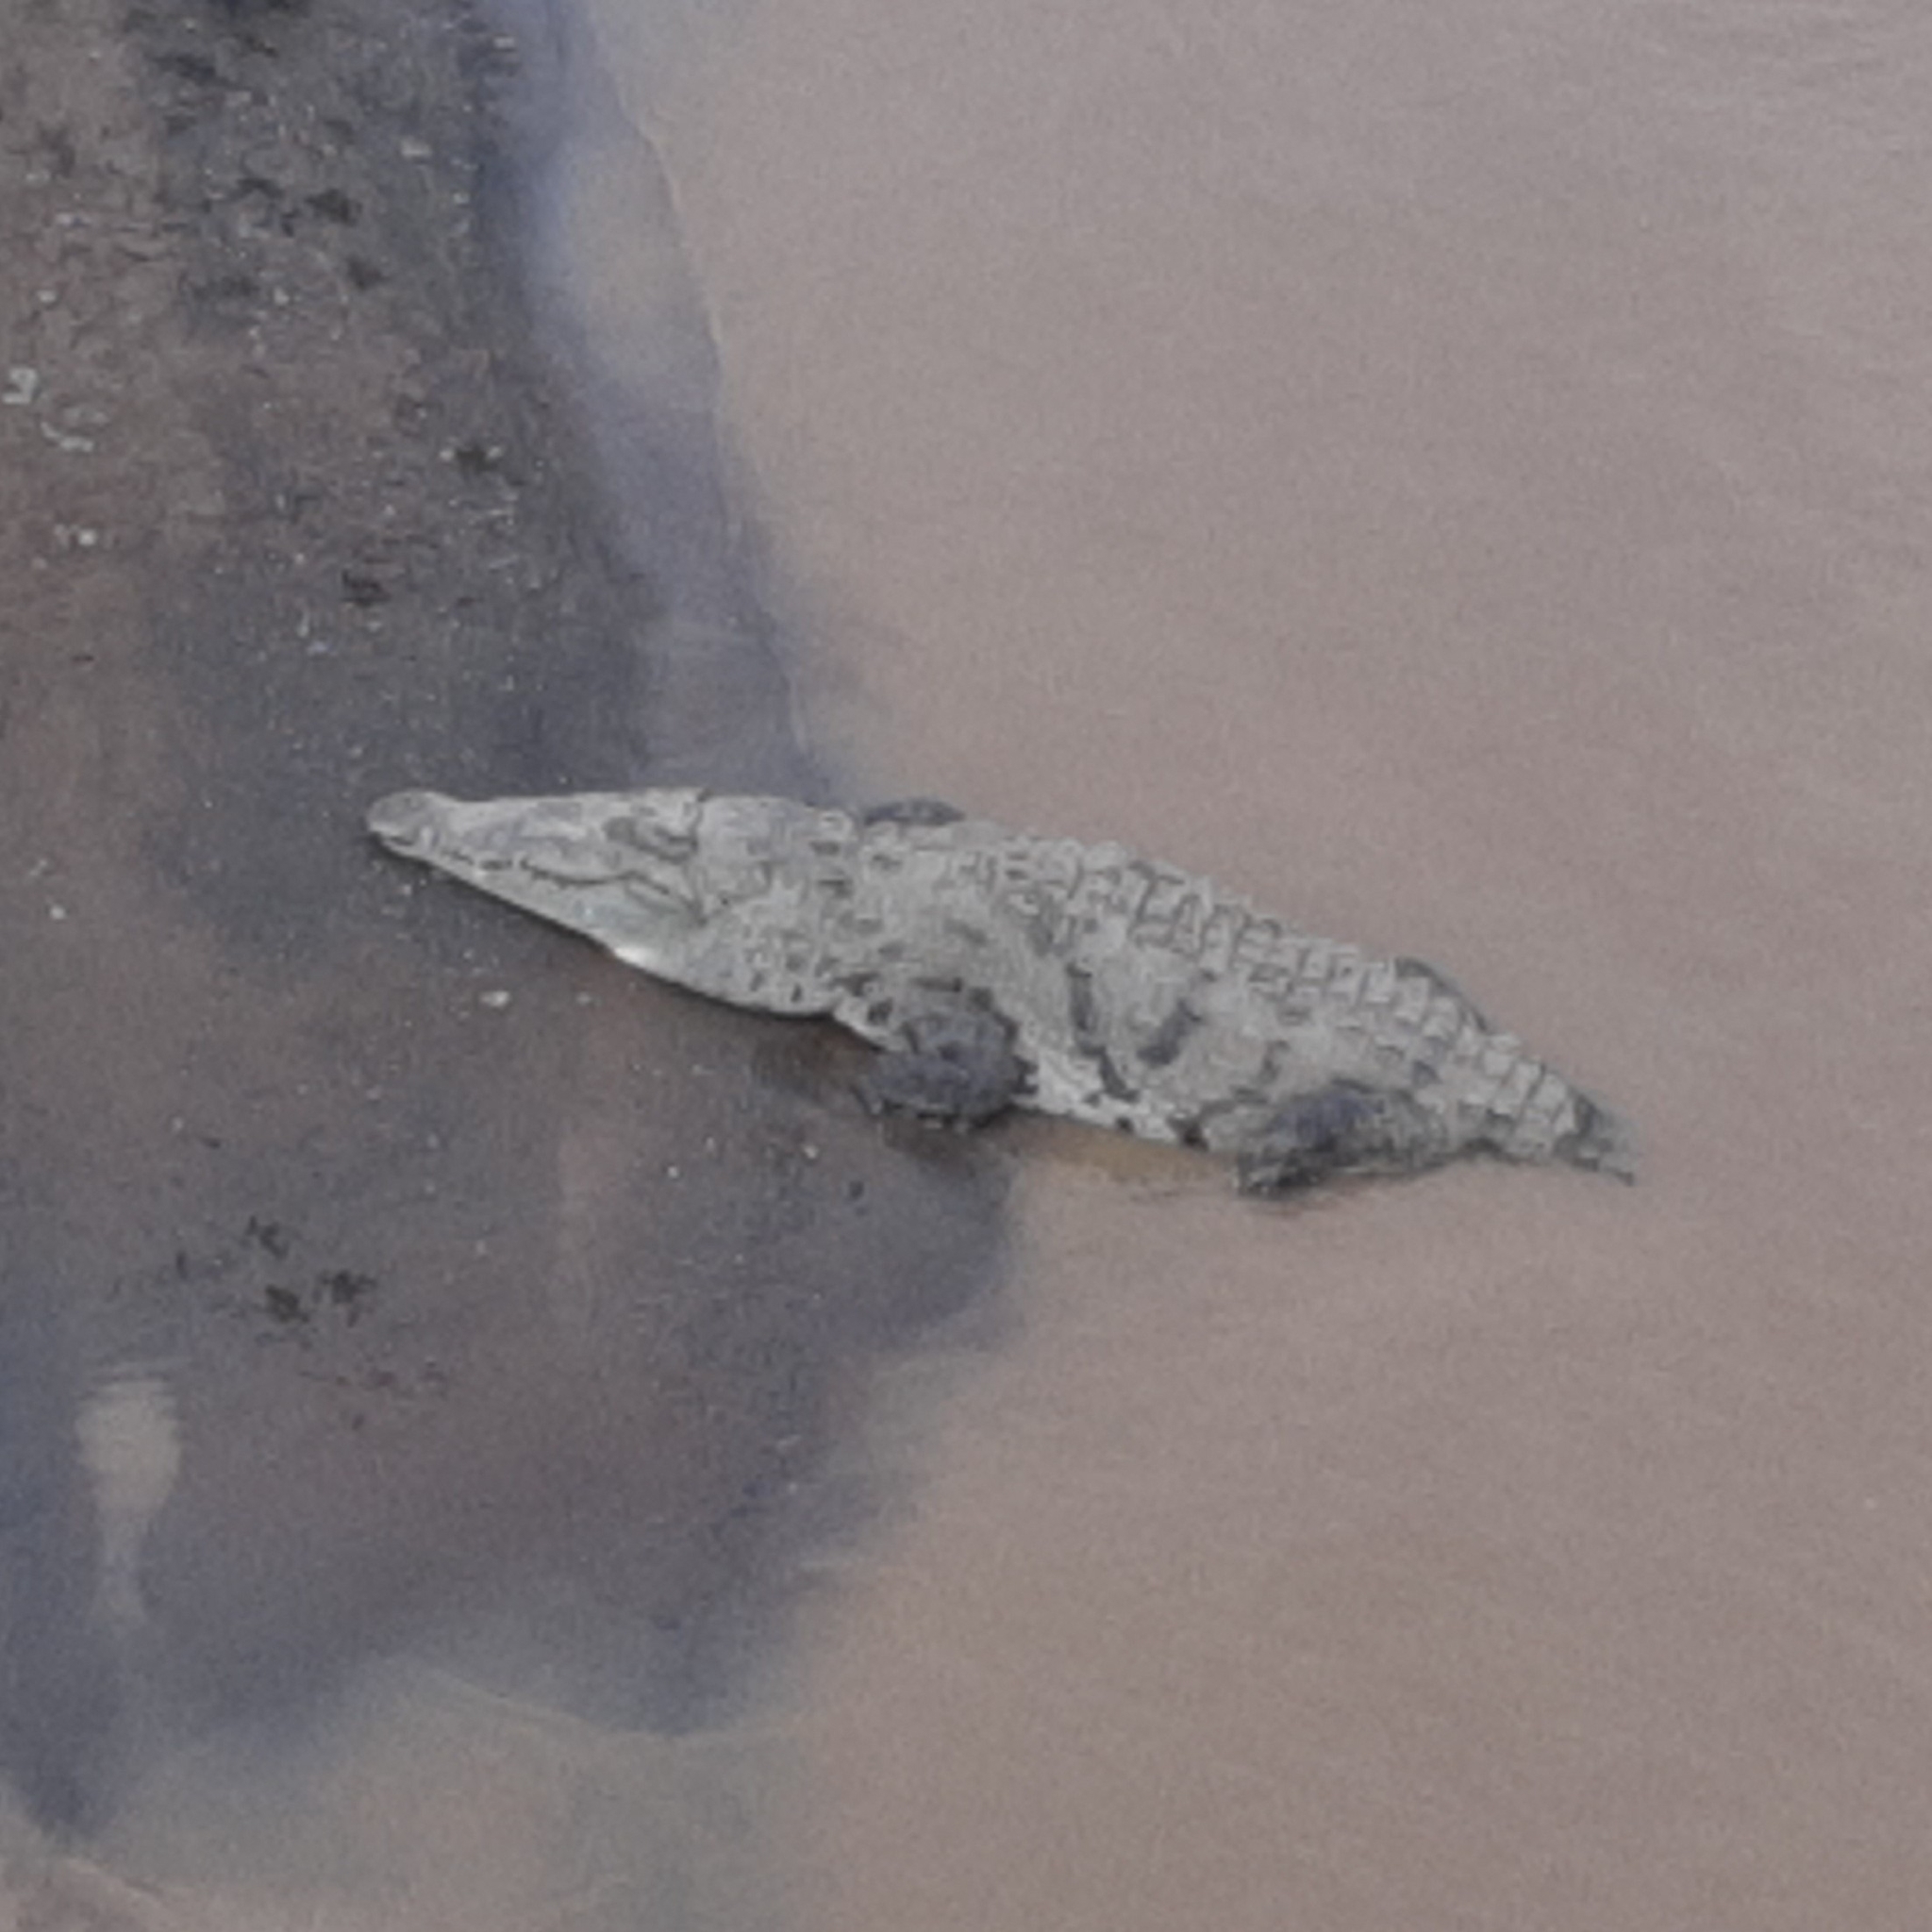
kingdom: Animalia
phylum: Chordata
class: Crocodylia
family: Crocodylidae
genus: Crocodylus
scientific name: Crocodylus acutus
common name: American crocodile
